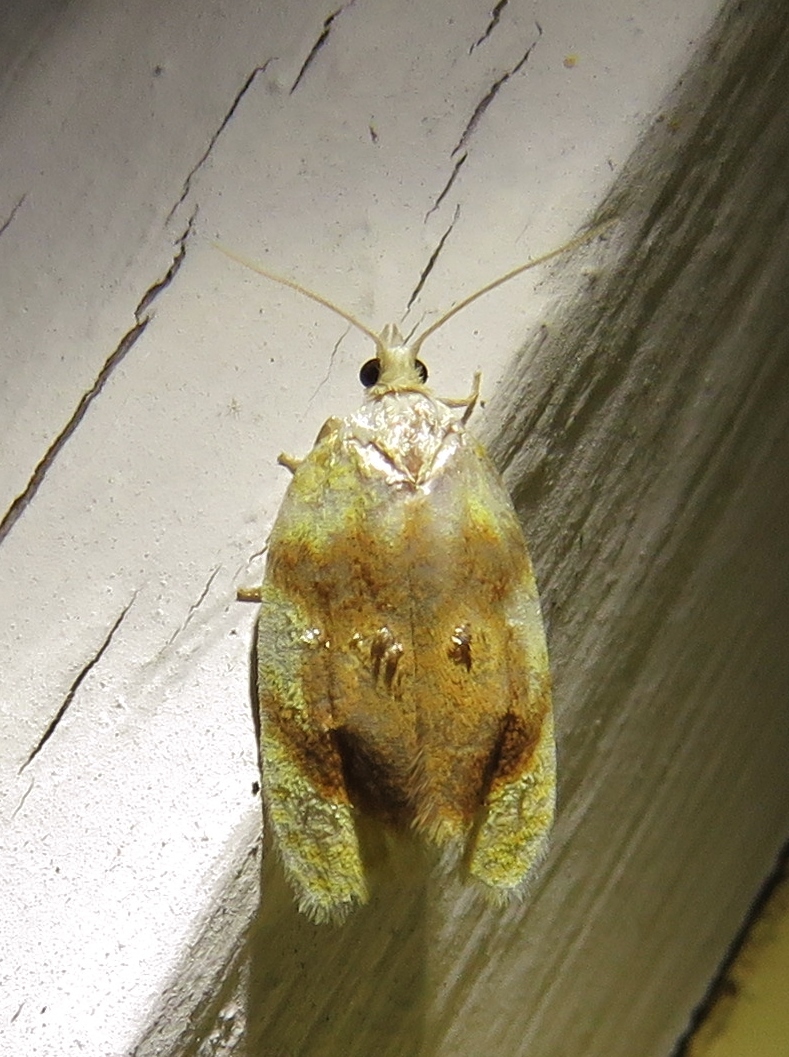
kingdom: Animalia
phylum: Arthropoda
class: Insecta
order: Lepidoptera
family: Tortricidae
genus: Archips
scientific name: Archips argyrospila
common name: Fruit-tree leafroller moth
